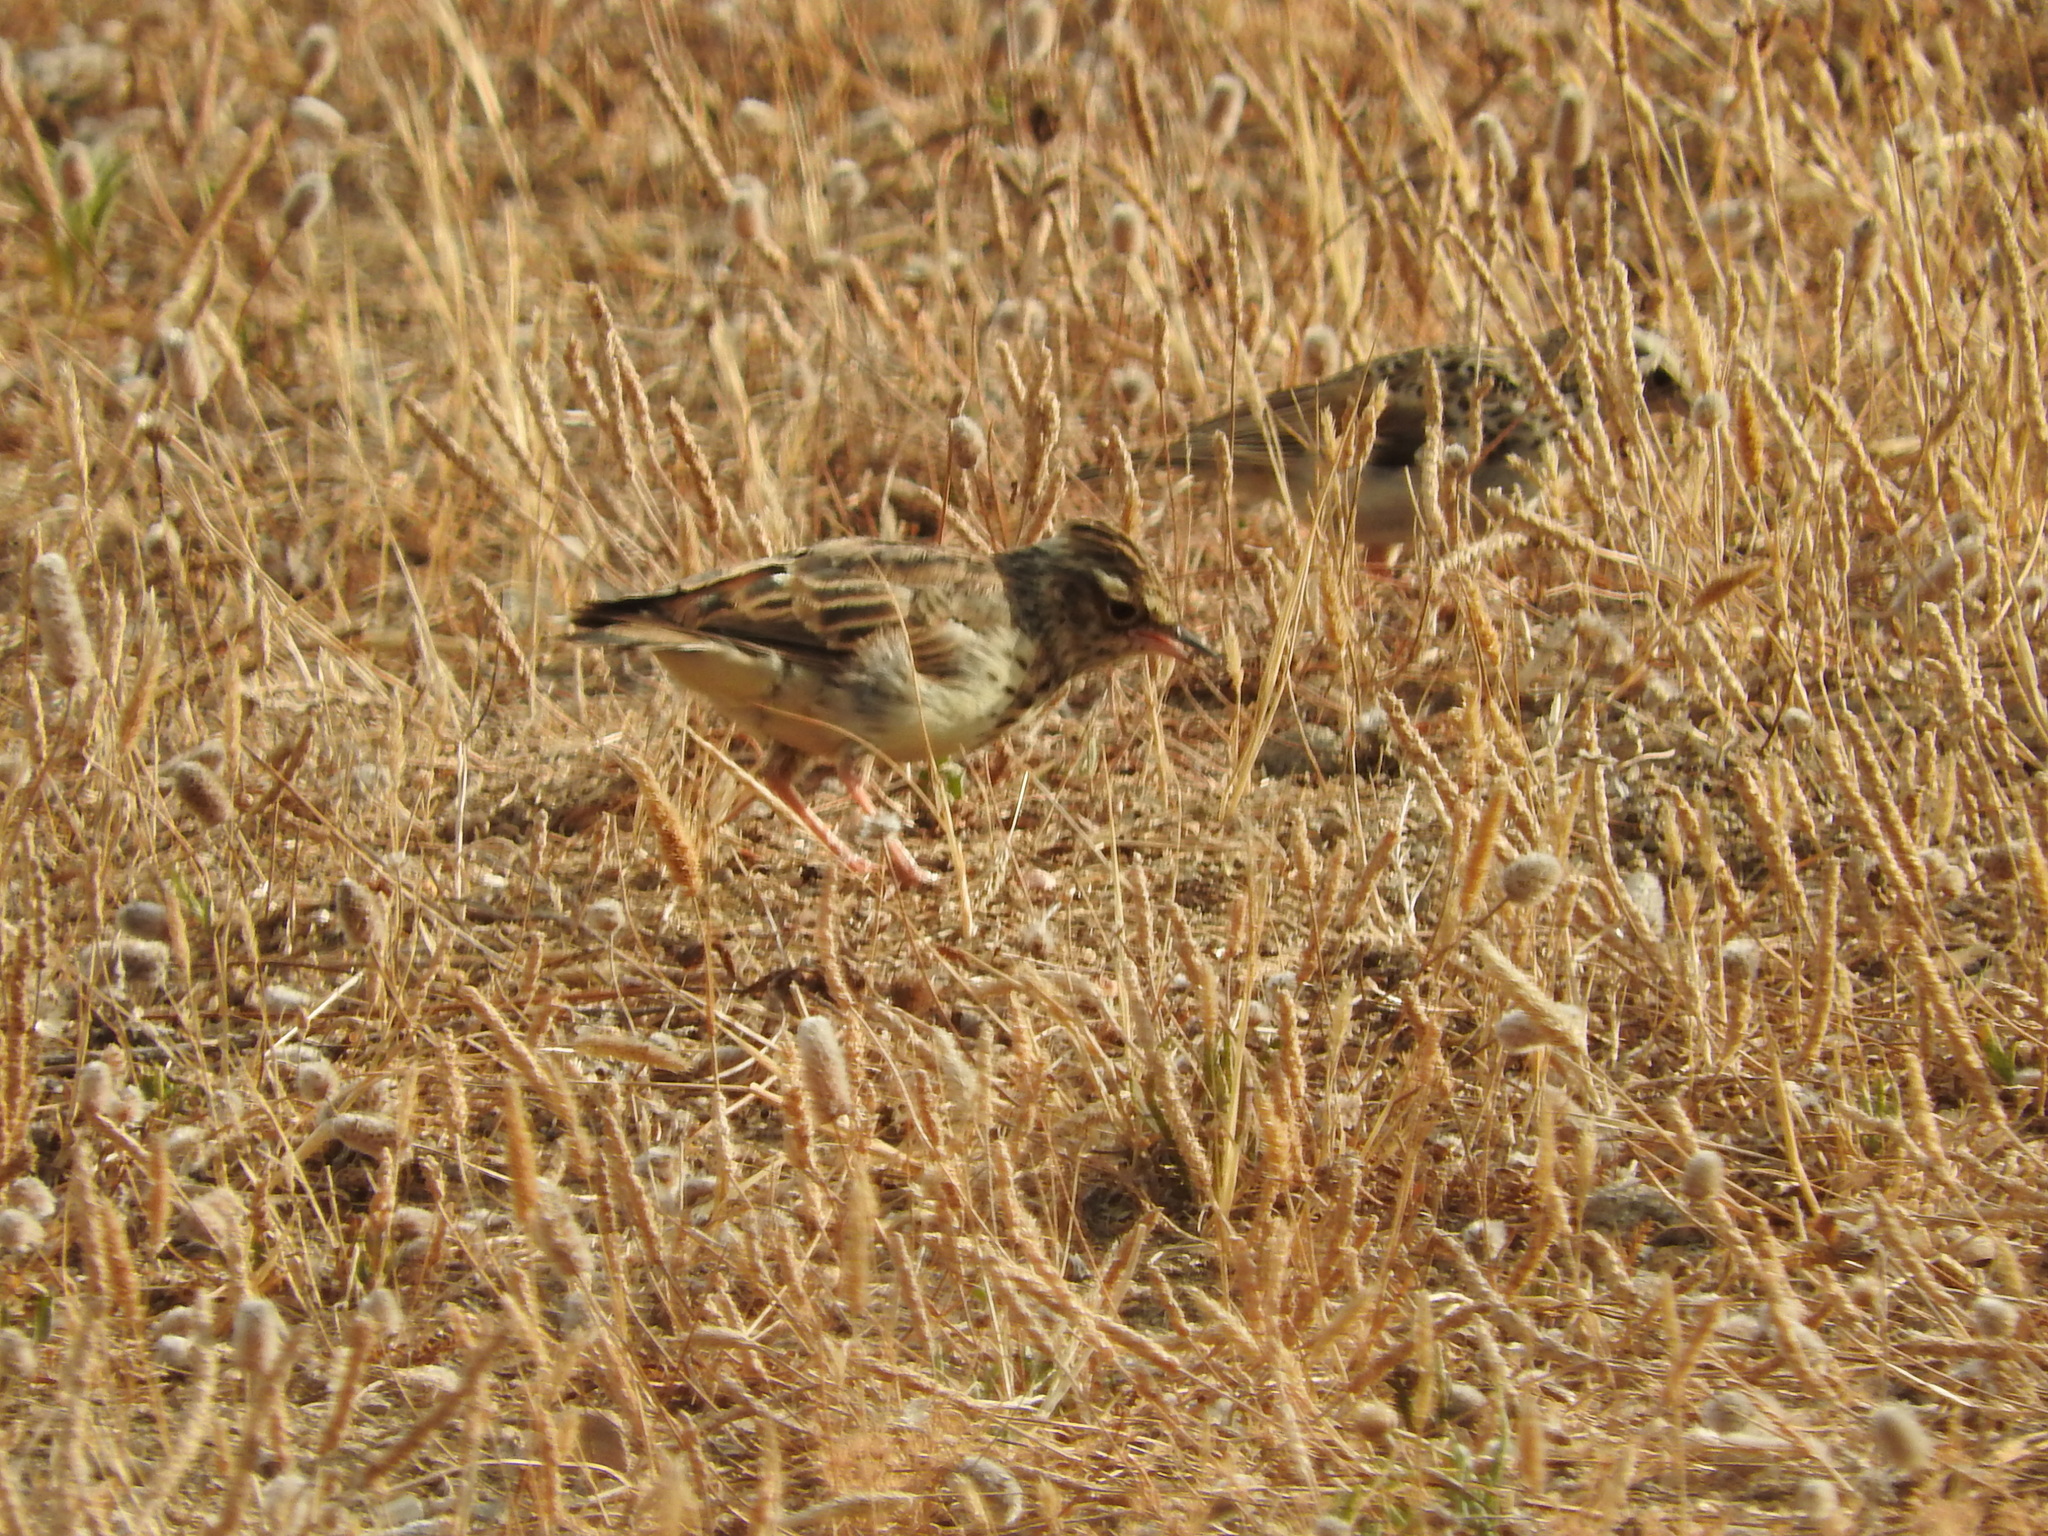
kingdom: Animalia
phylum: Chordata
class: Aves
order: Passeriformes
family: Alaudidae
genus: Lullula
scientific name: Lullula arborea
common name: Woodlark
